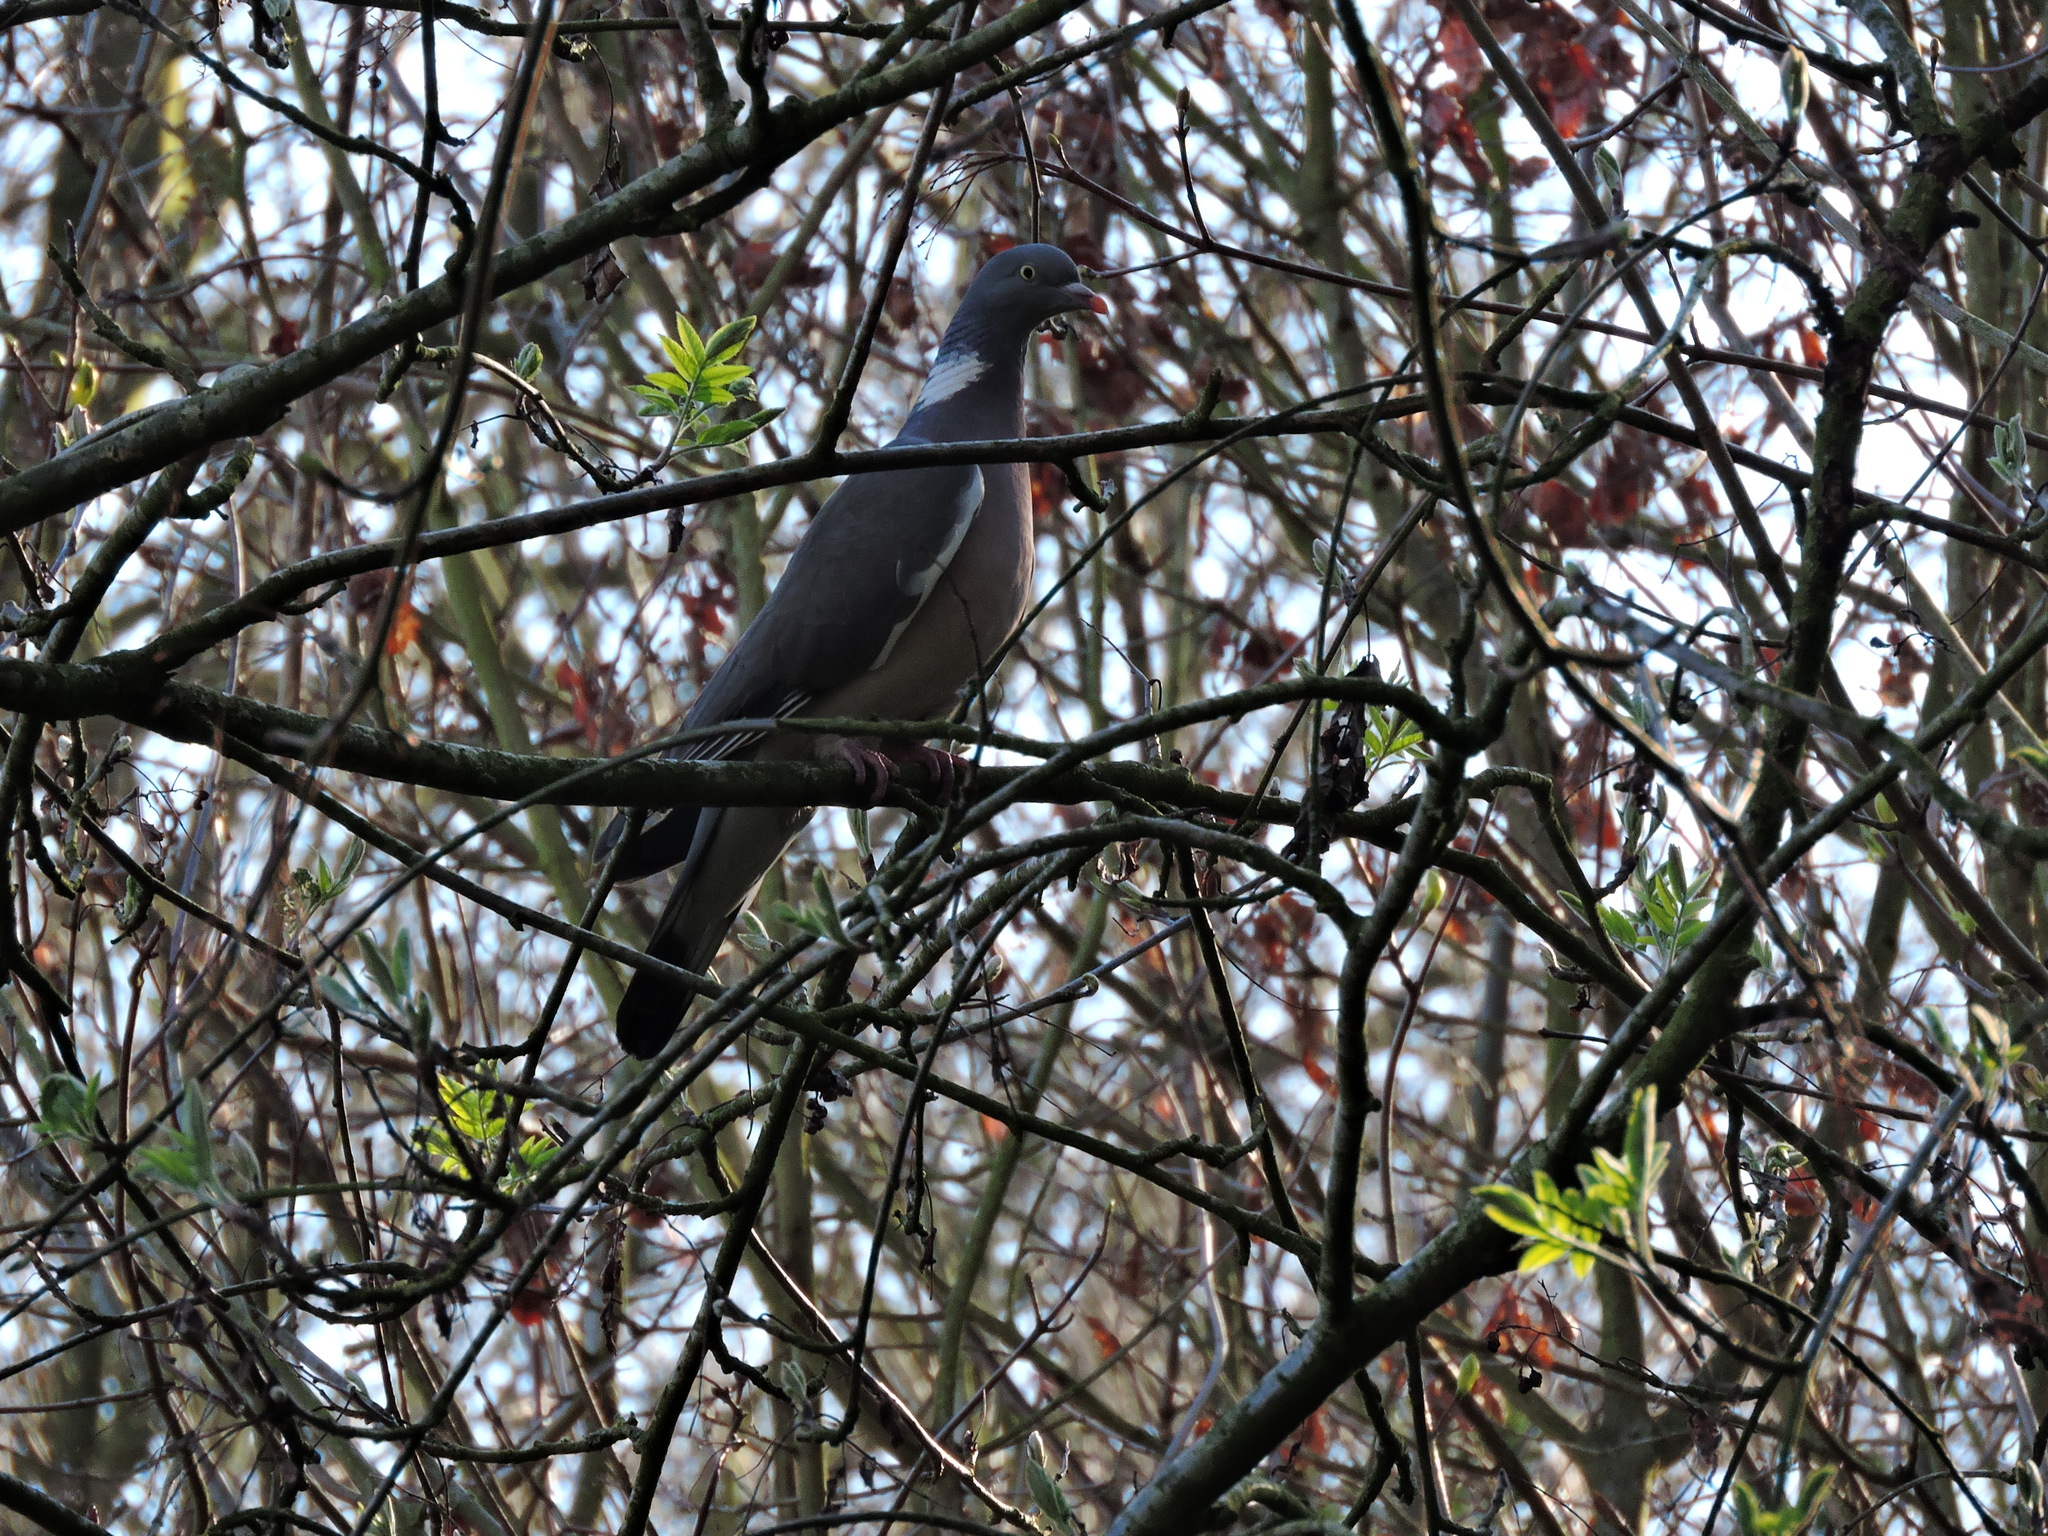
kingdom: Animalia
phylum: Chordata
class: Aves
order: Columbiformes
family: Columbidae
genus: Columba
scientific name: Columba palumbus
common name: Common wood pigeon
